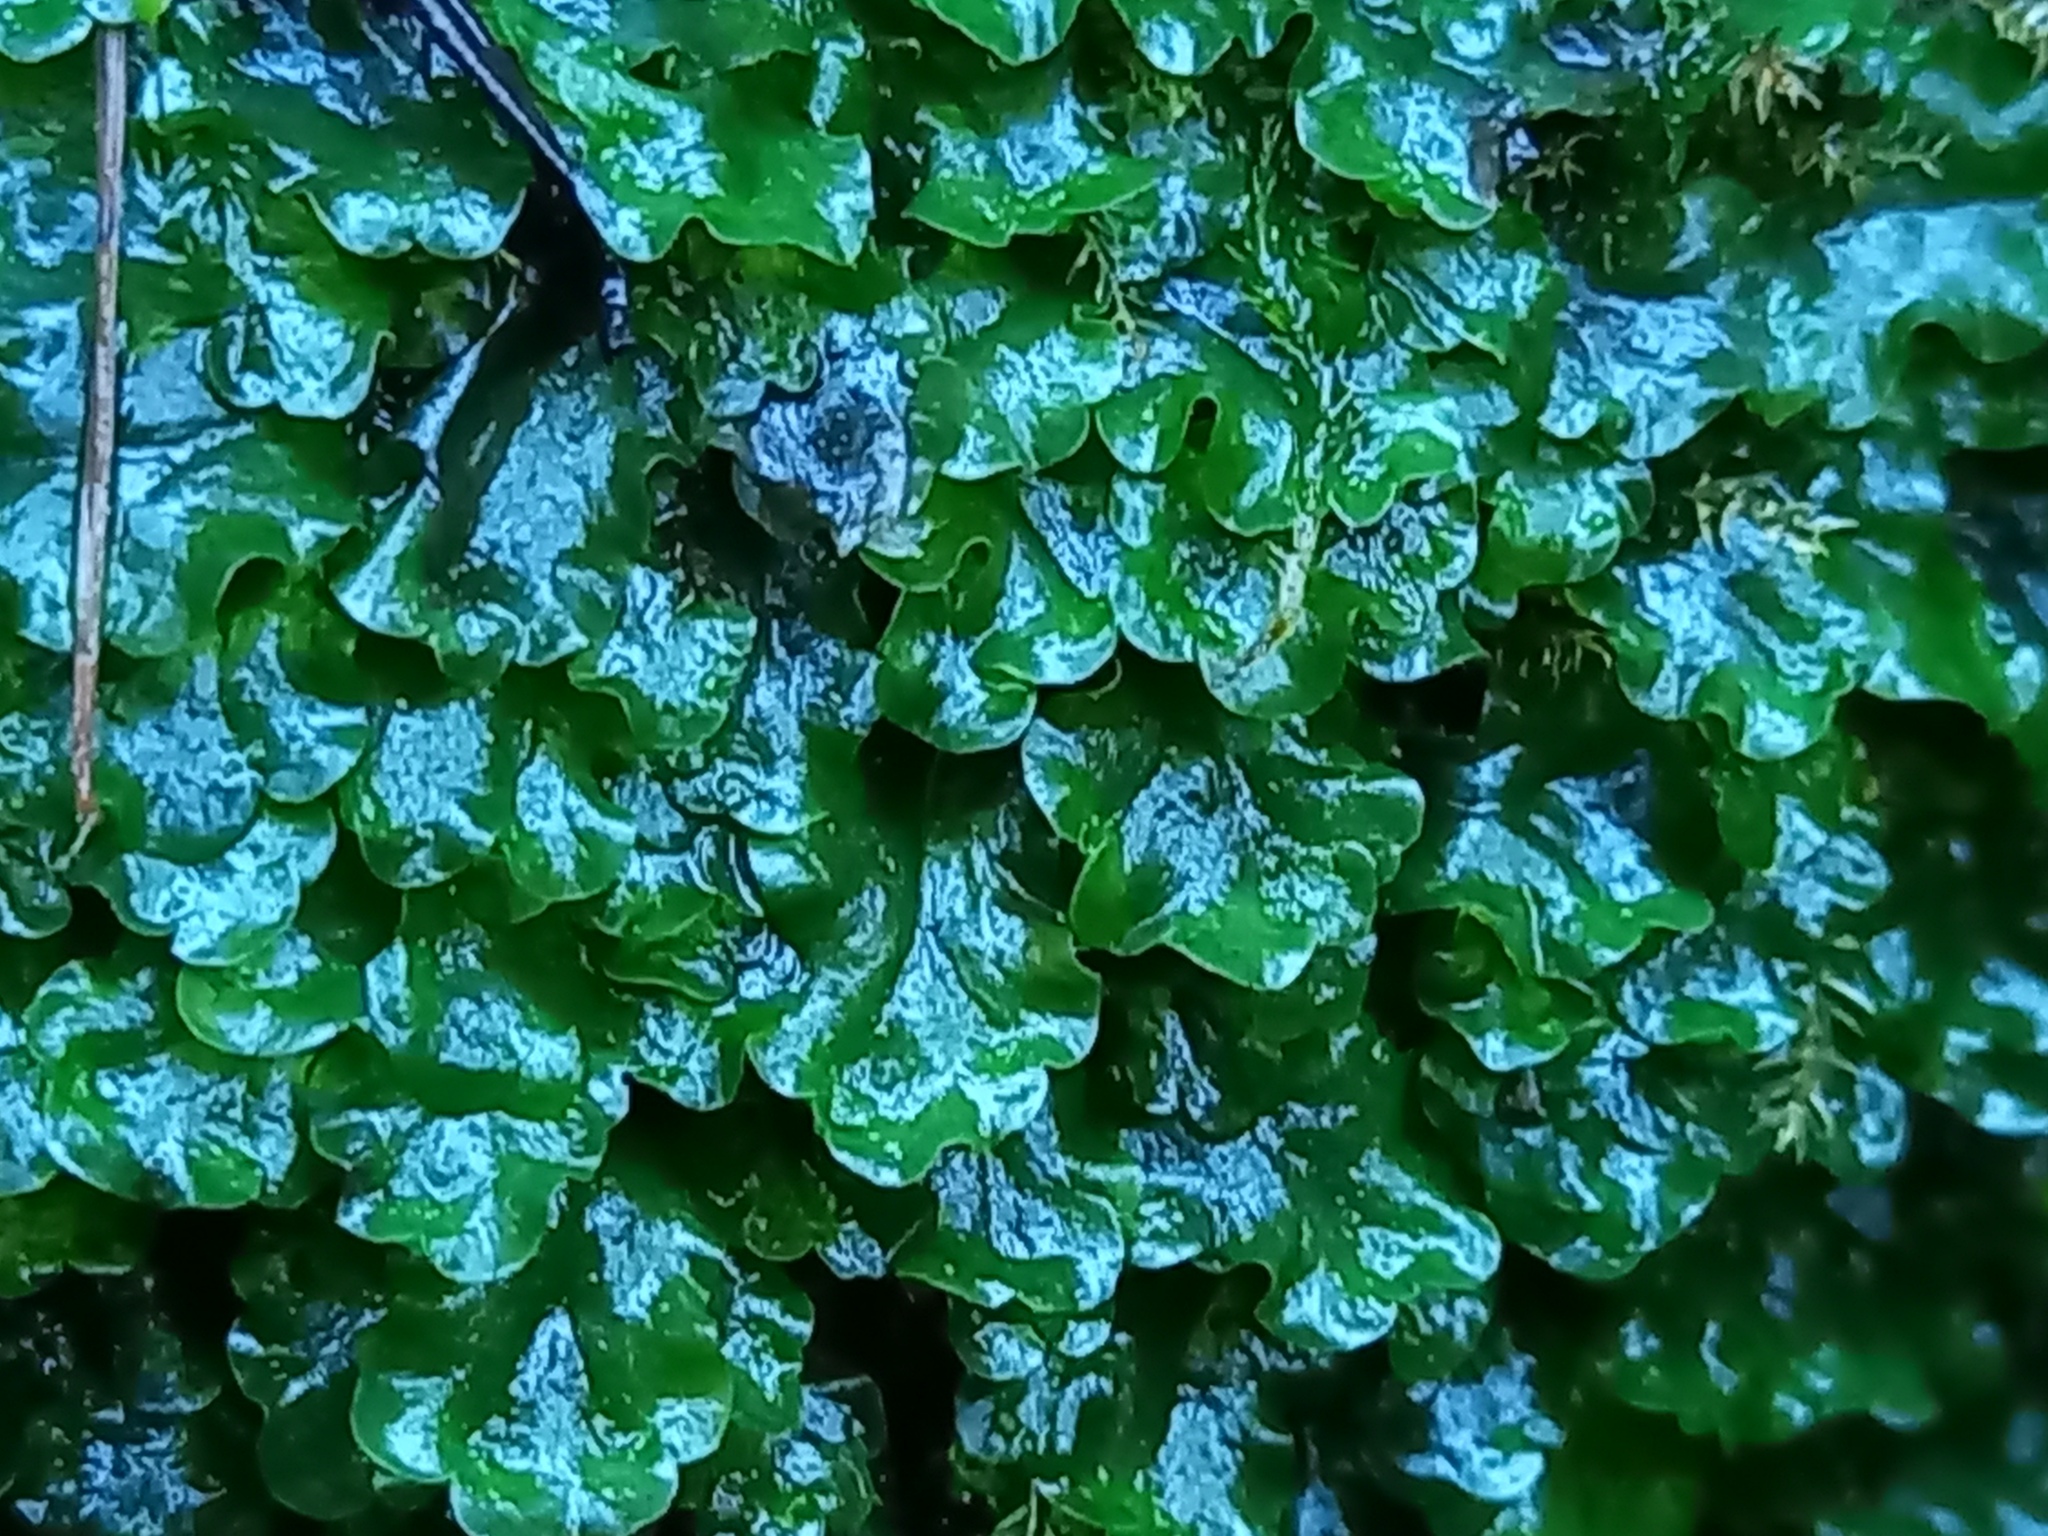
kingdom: Plantae
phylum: Marchantiophyta
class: Jungermanniopsida
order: Pelliales
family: Pelliaceae
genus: Pellia
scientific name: Pellia epiphylla
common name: Common pellia
